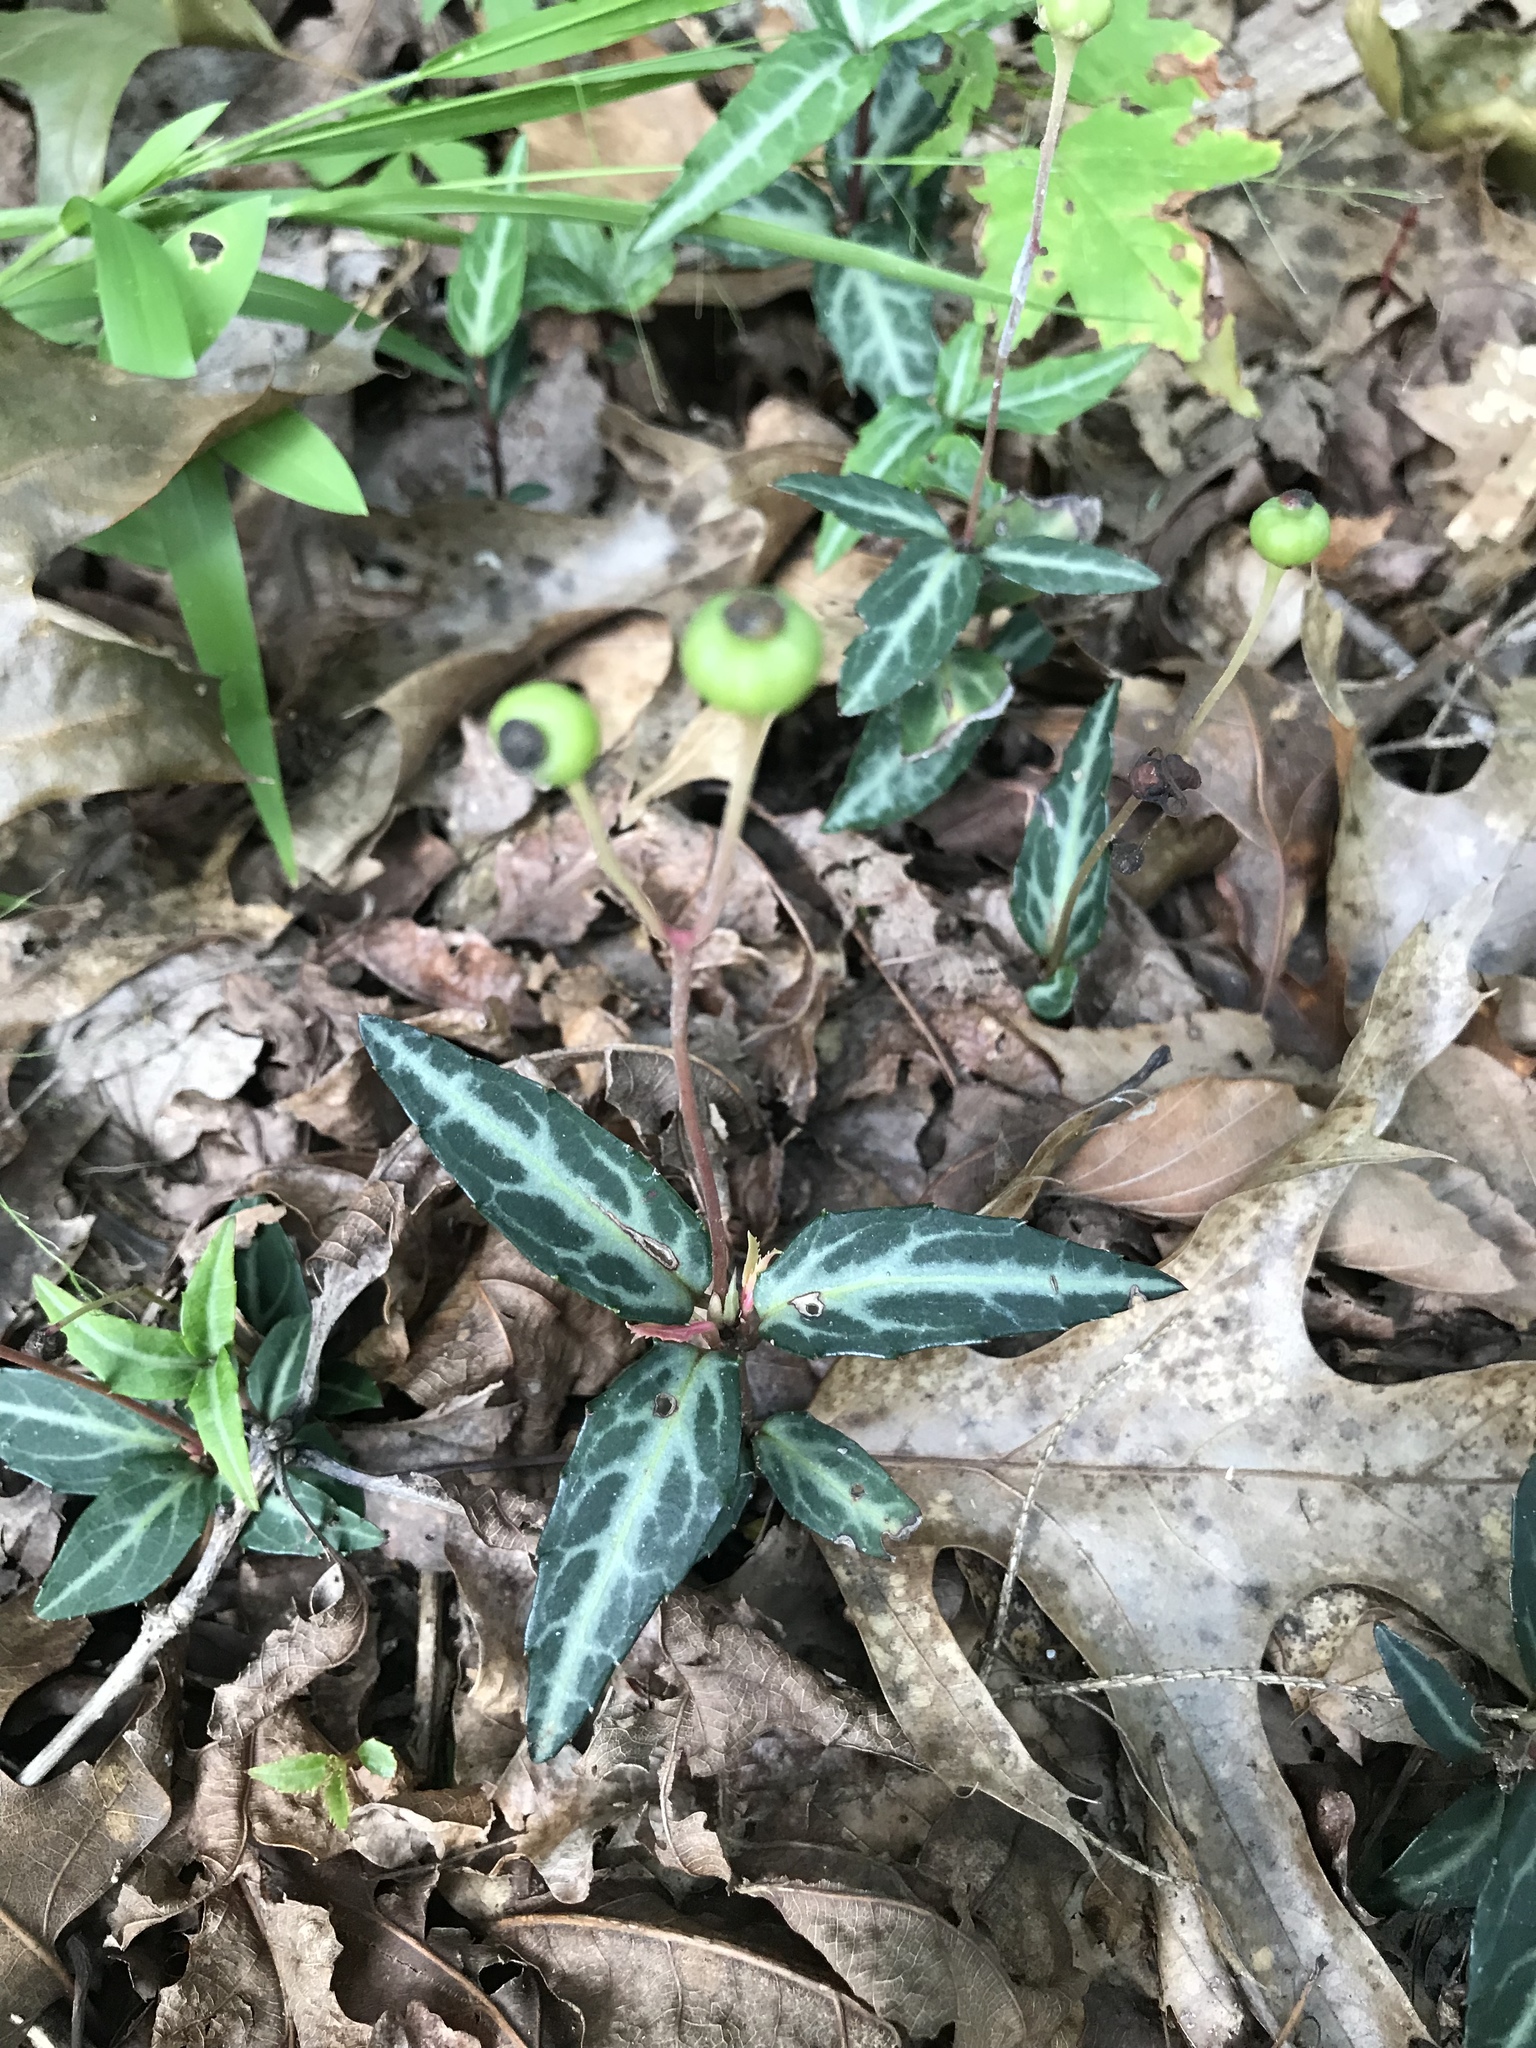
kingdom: Plantae
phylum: Tracheophyta
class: Magnoliopsida
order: Ericales
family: Ericaceae
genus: Chimaphila
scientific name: Chimaphila maculata
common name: Spotted pipsissewa
